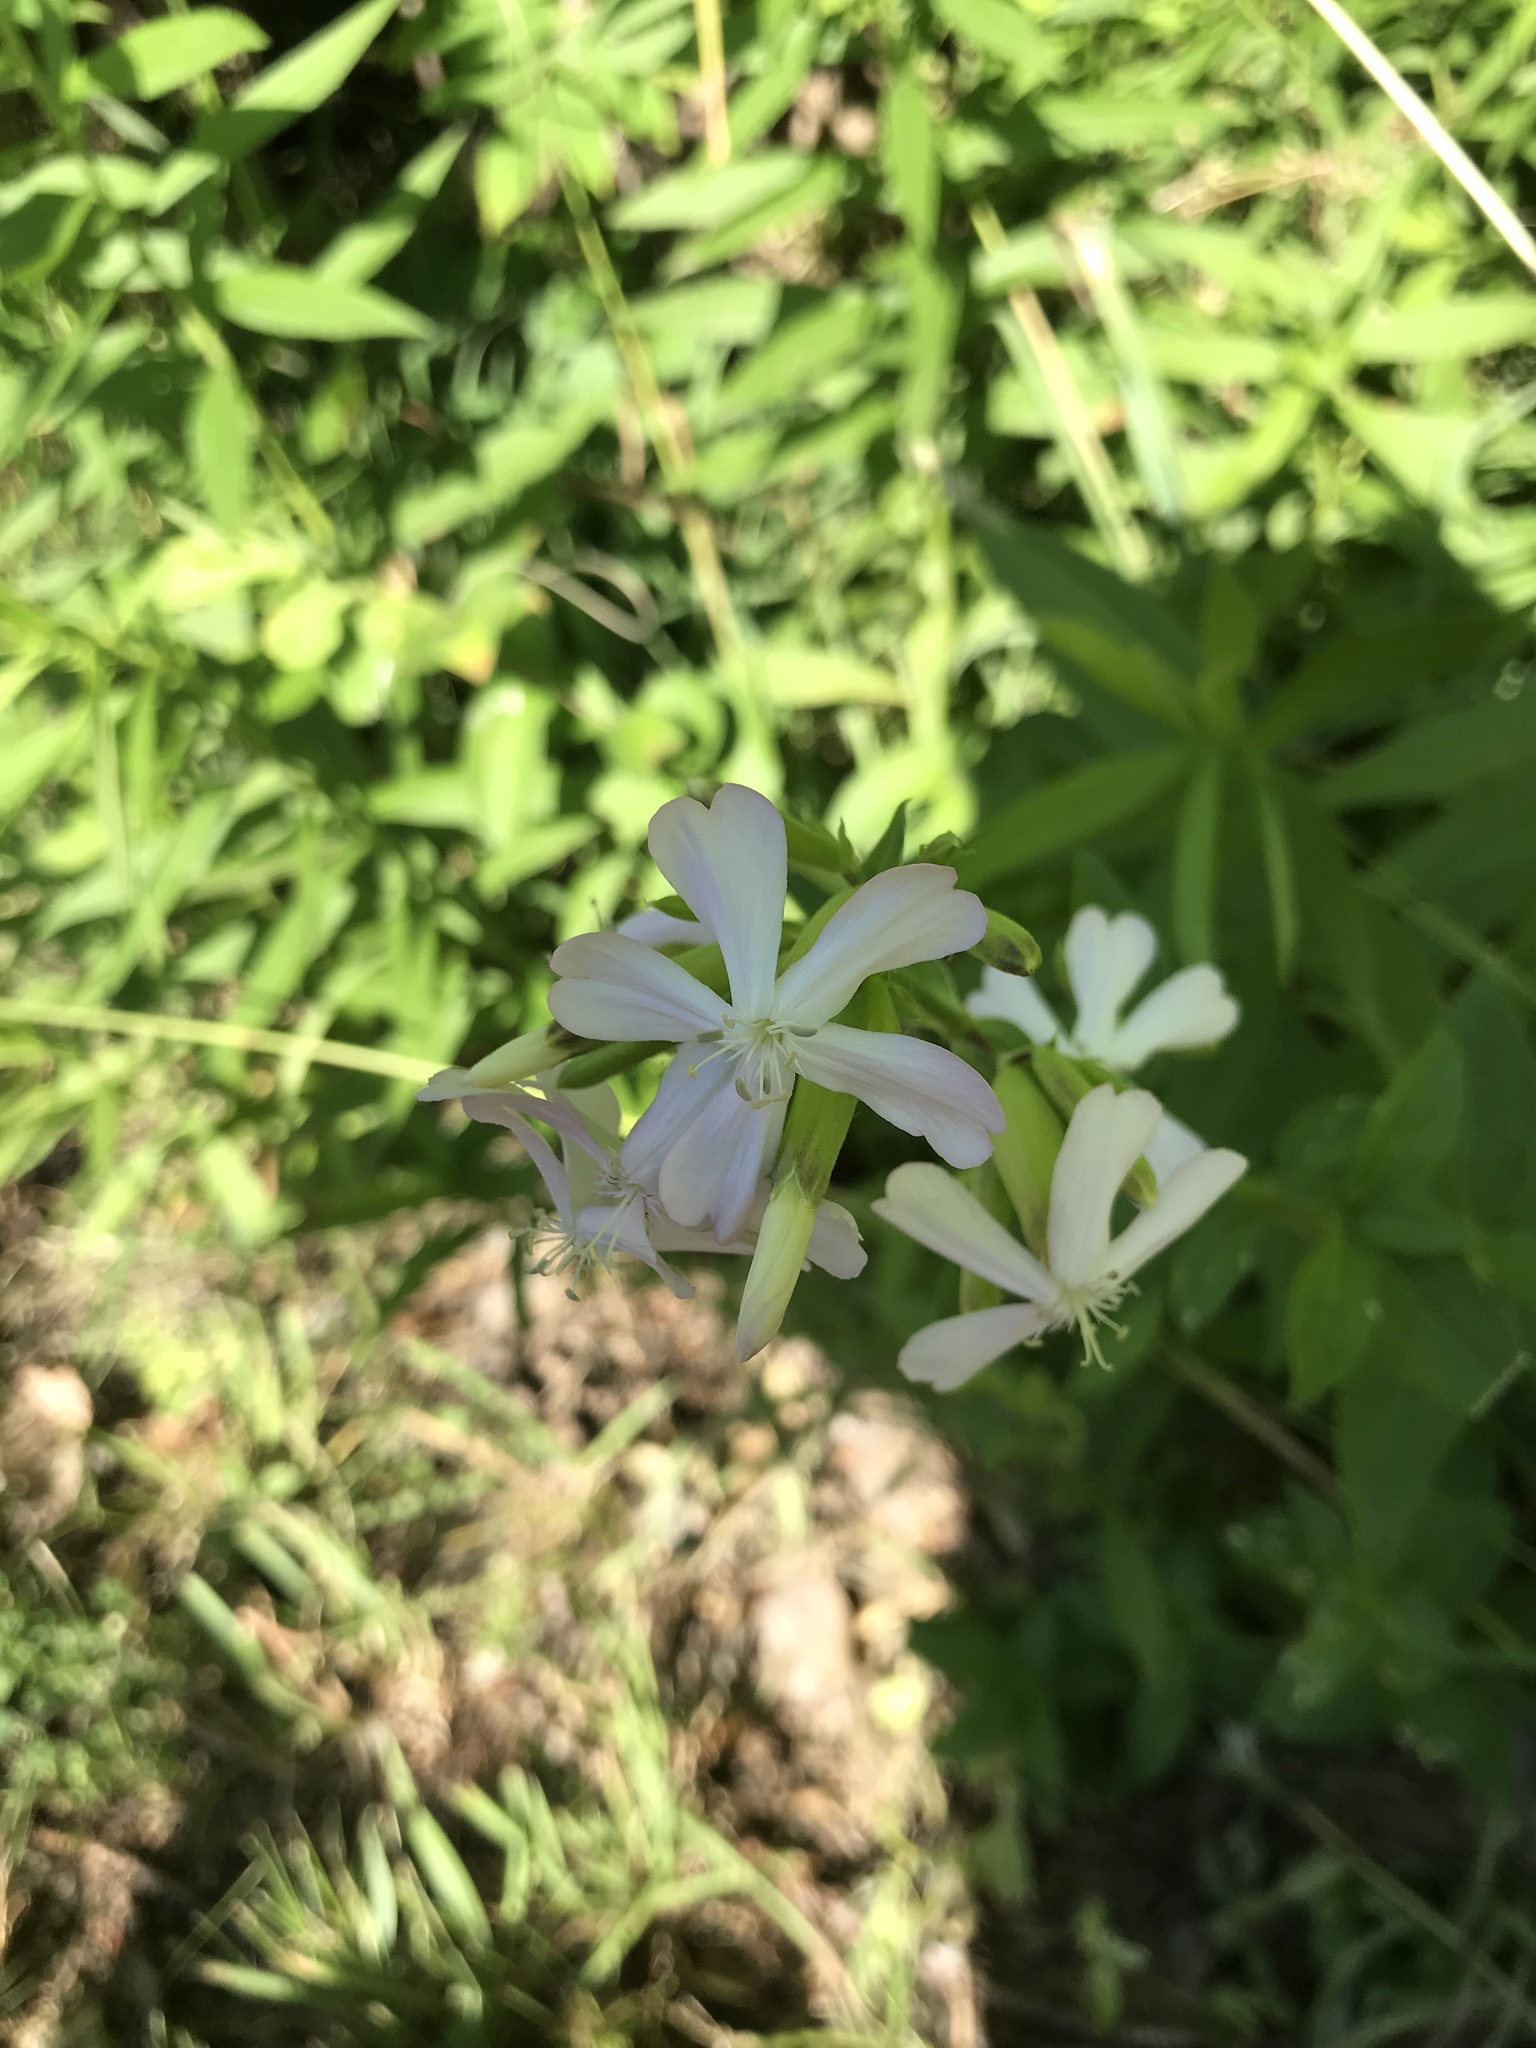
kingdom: Plantae
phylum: Tracheophyta
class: Magnoliopsida
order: Caryophyllales
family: Caryophyllaceae
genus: Saponaria
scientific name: Saponaria officinalis
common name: Soapwort
